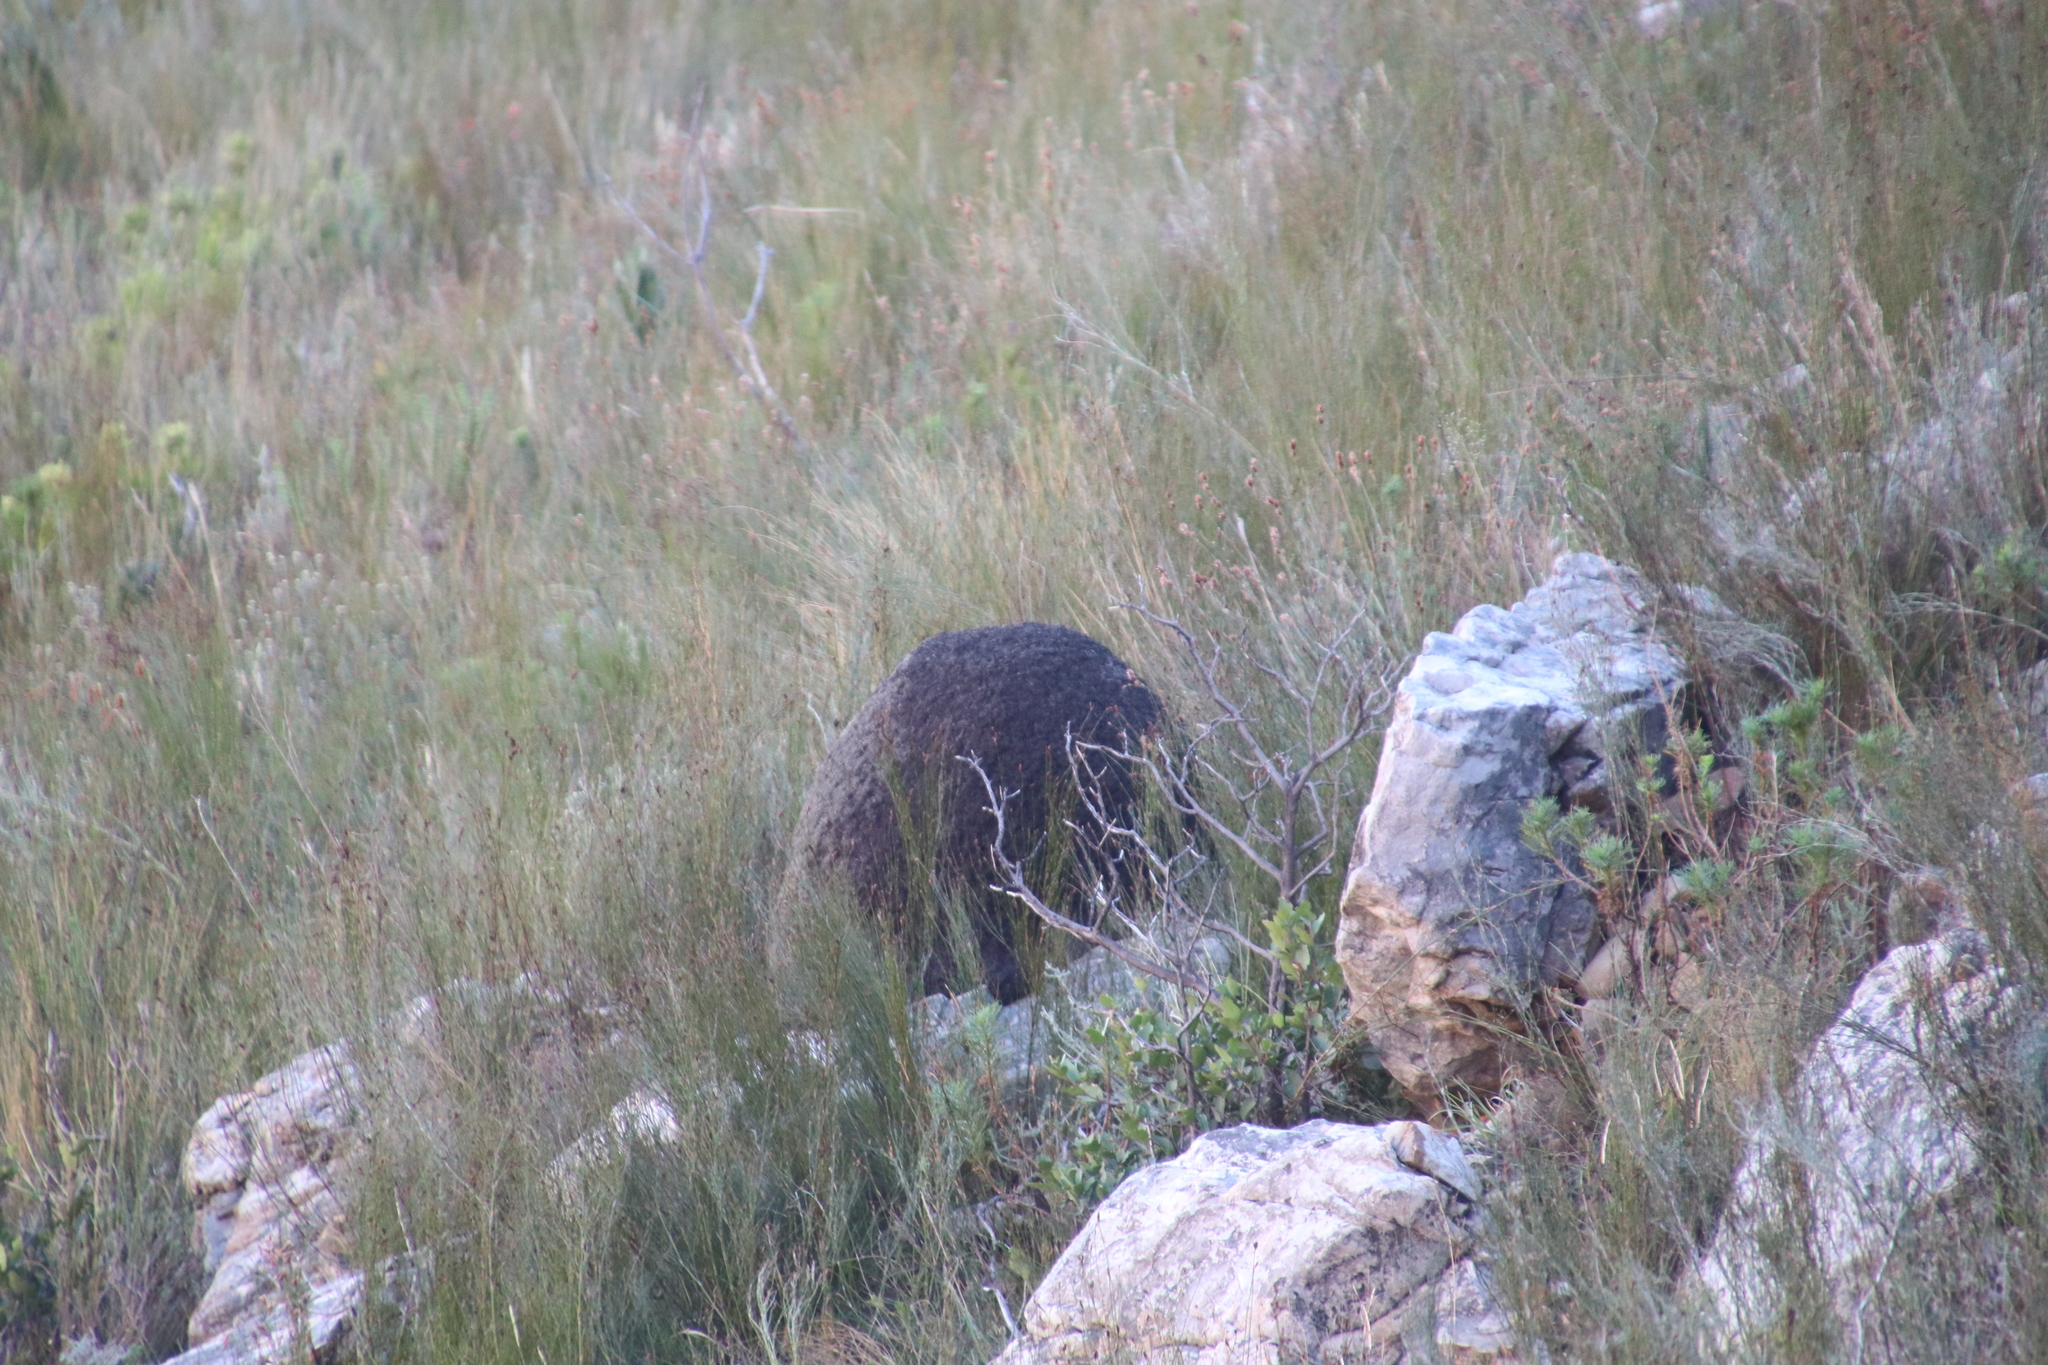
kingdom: Animalia
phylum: Arthropoda
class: Insecta
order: Blattodea
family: Termitidae
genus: Amitermes
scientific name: Amitermes hastatus
